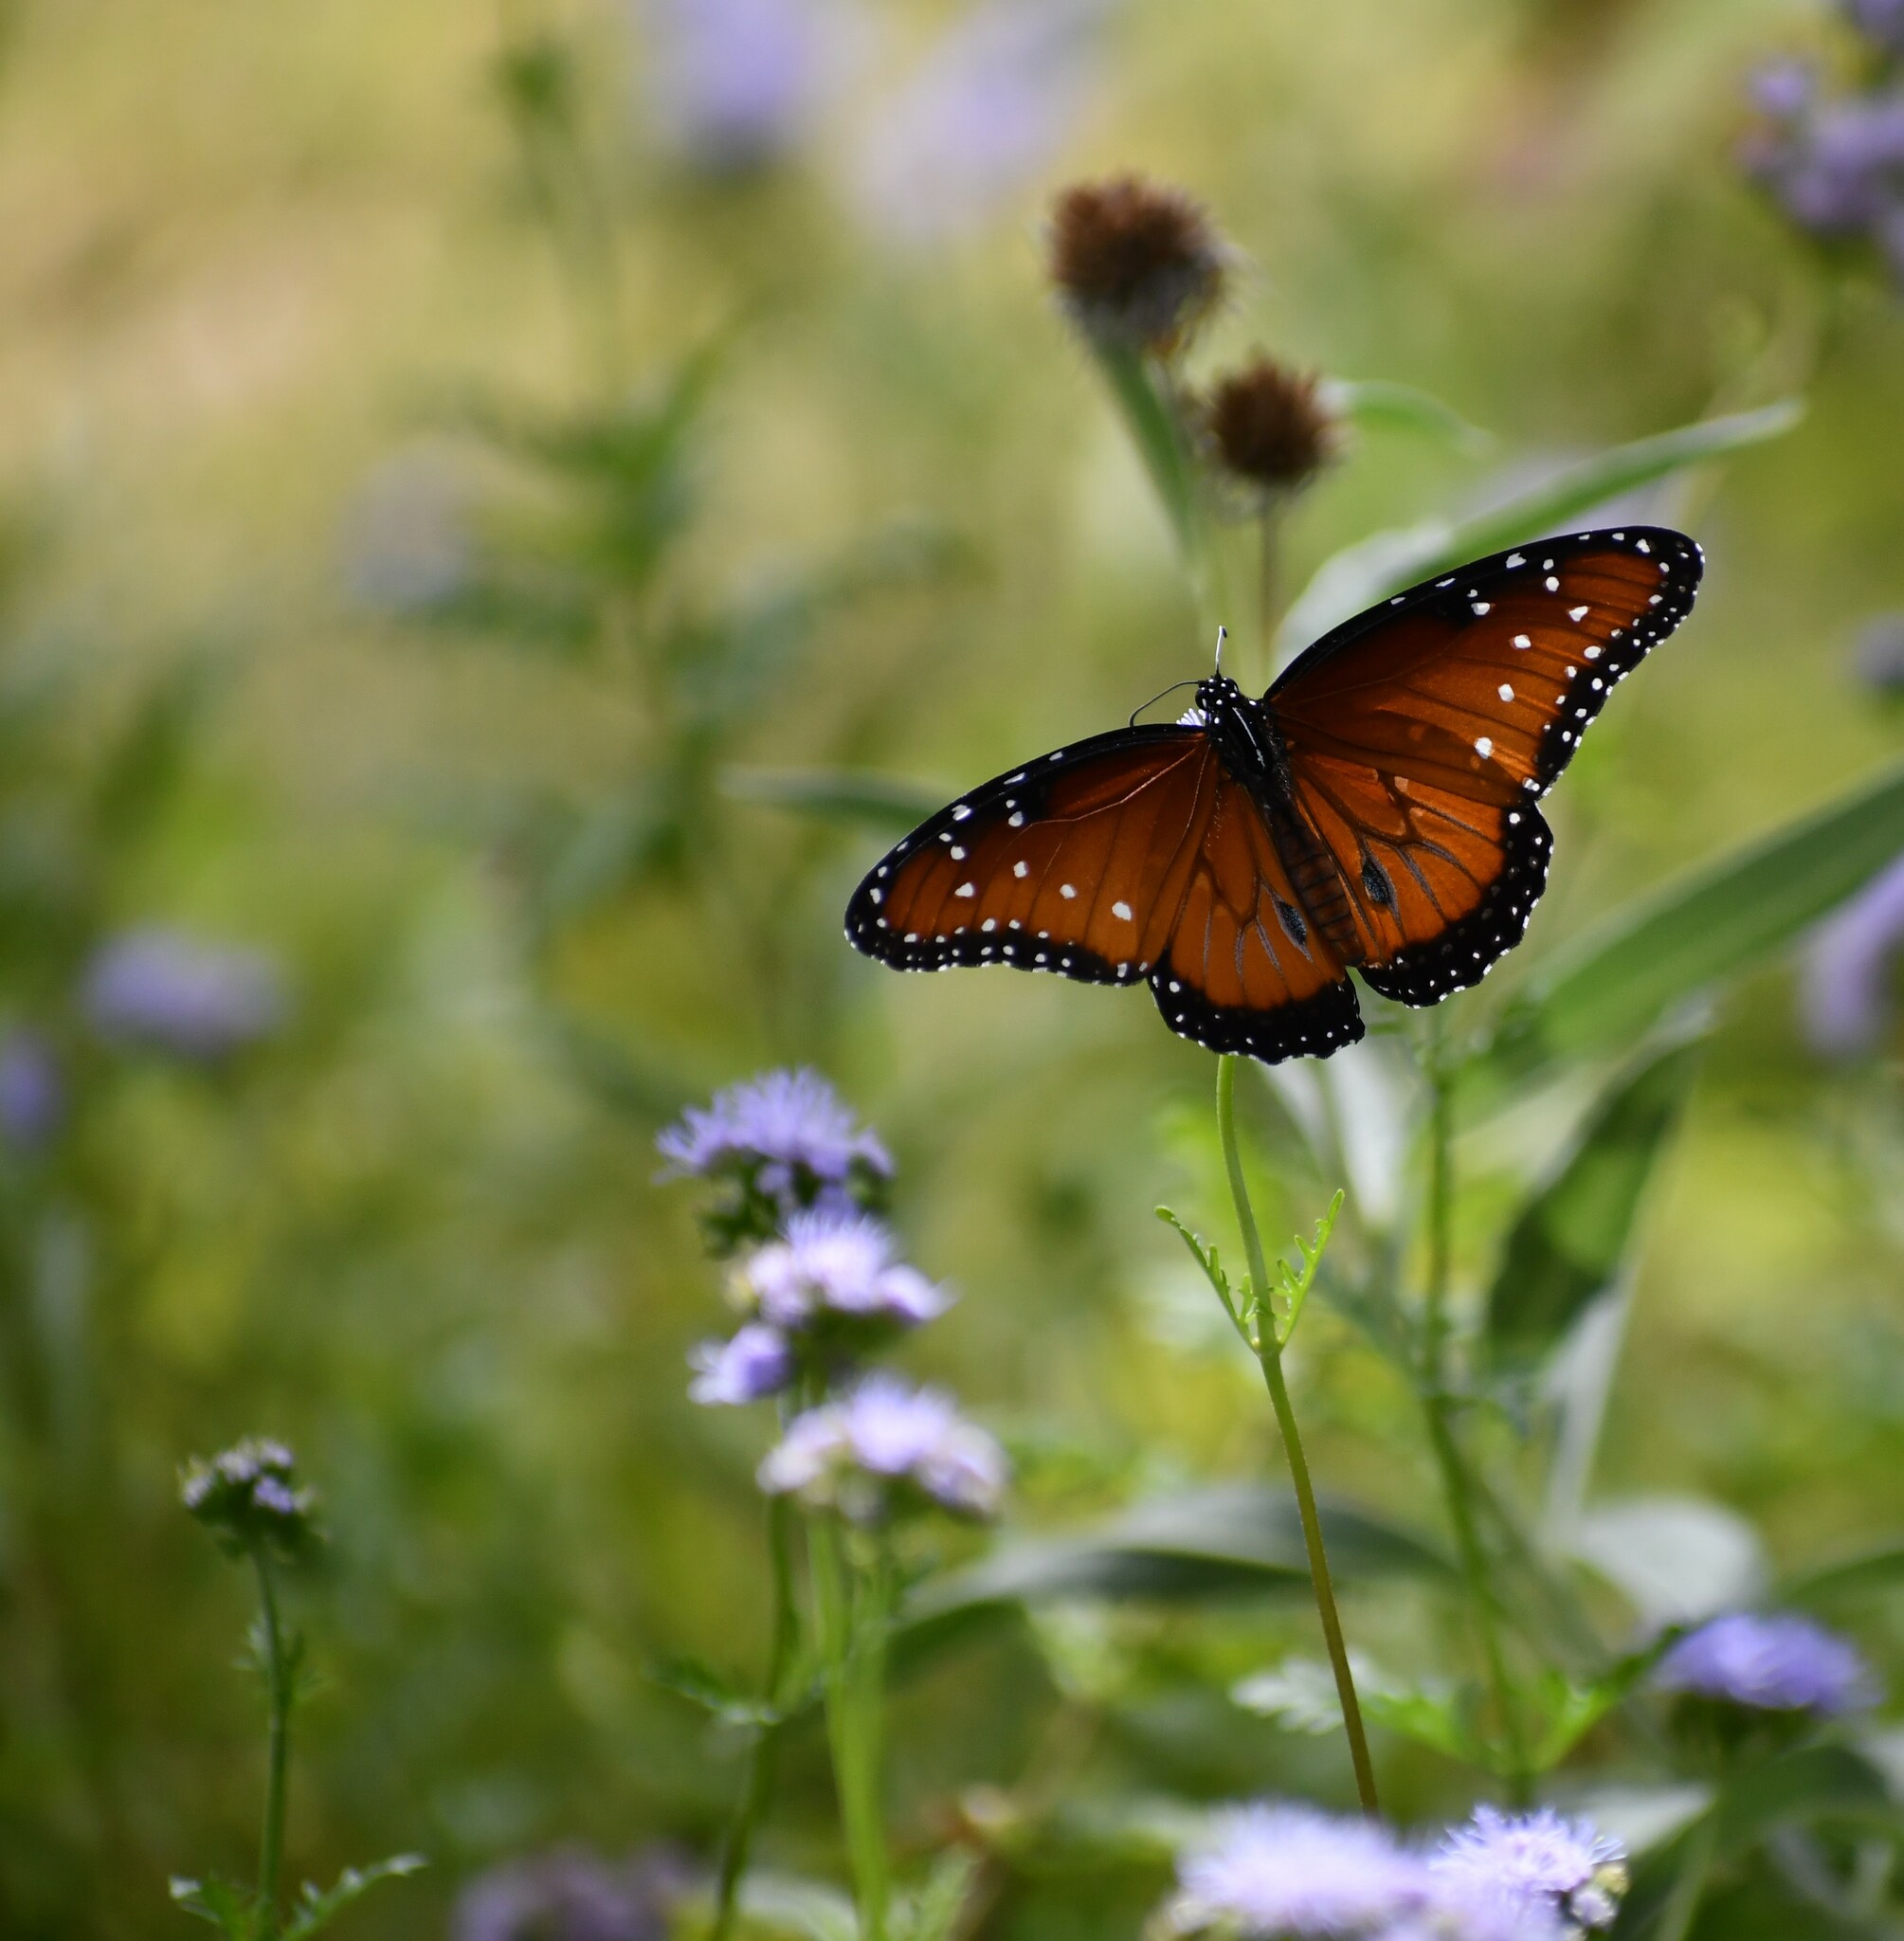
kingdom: Animalia
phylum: Arthropoda
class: Insecta
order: Lepidoptera
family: Nymphalidae
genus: Danaus
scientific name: Danaus gilippus
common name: Queen
